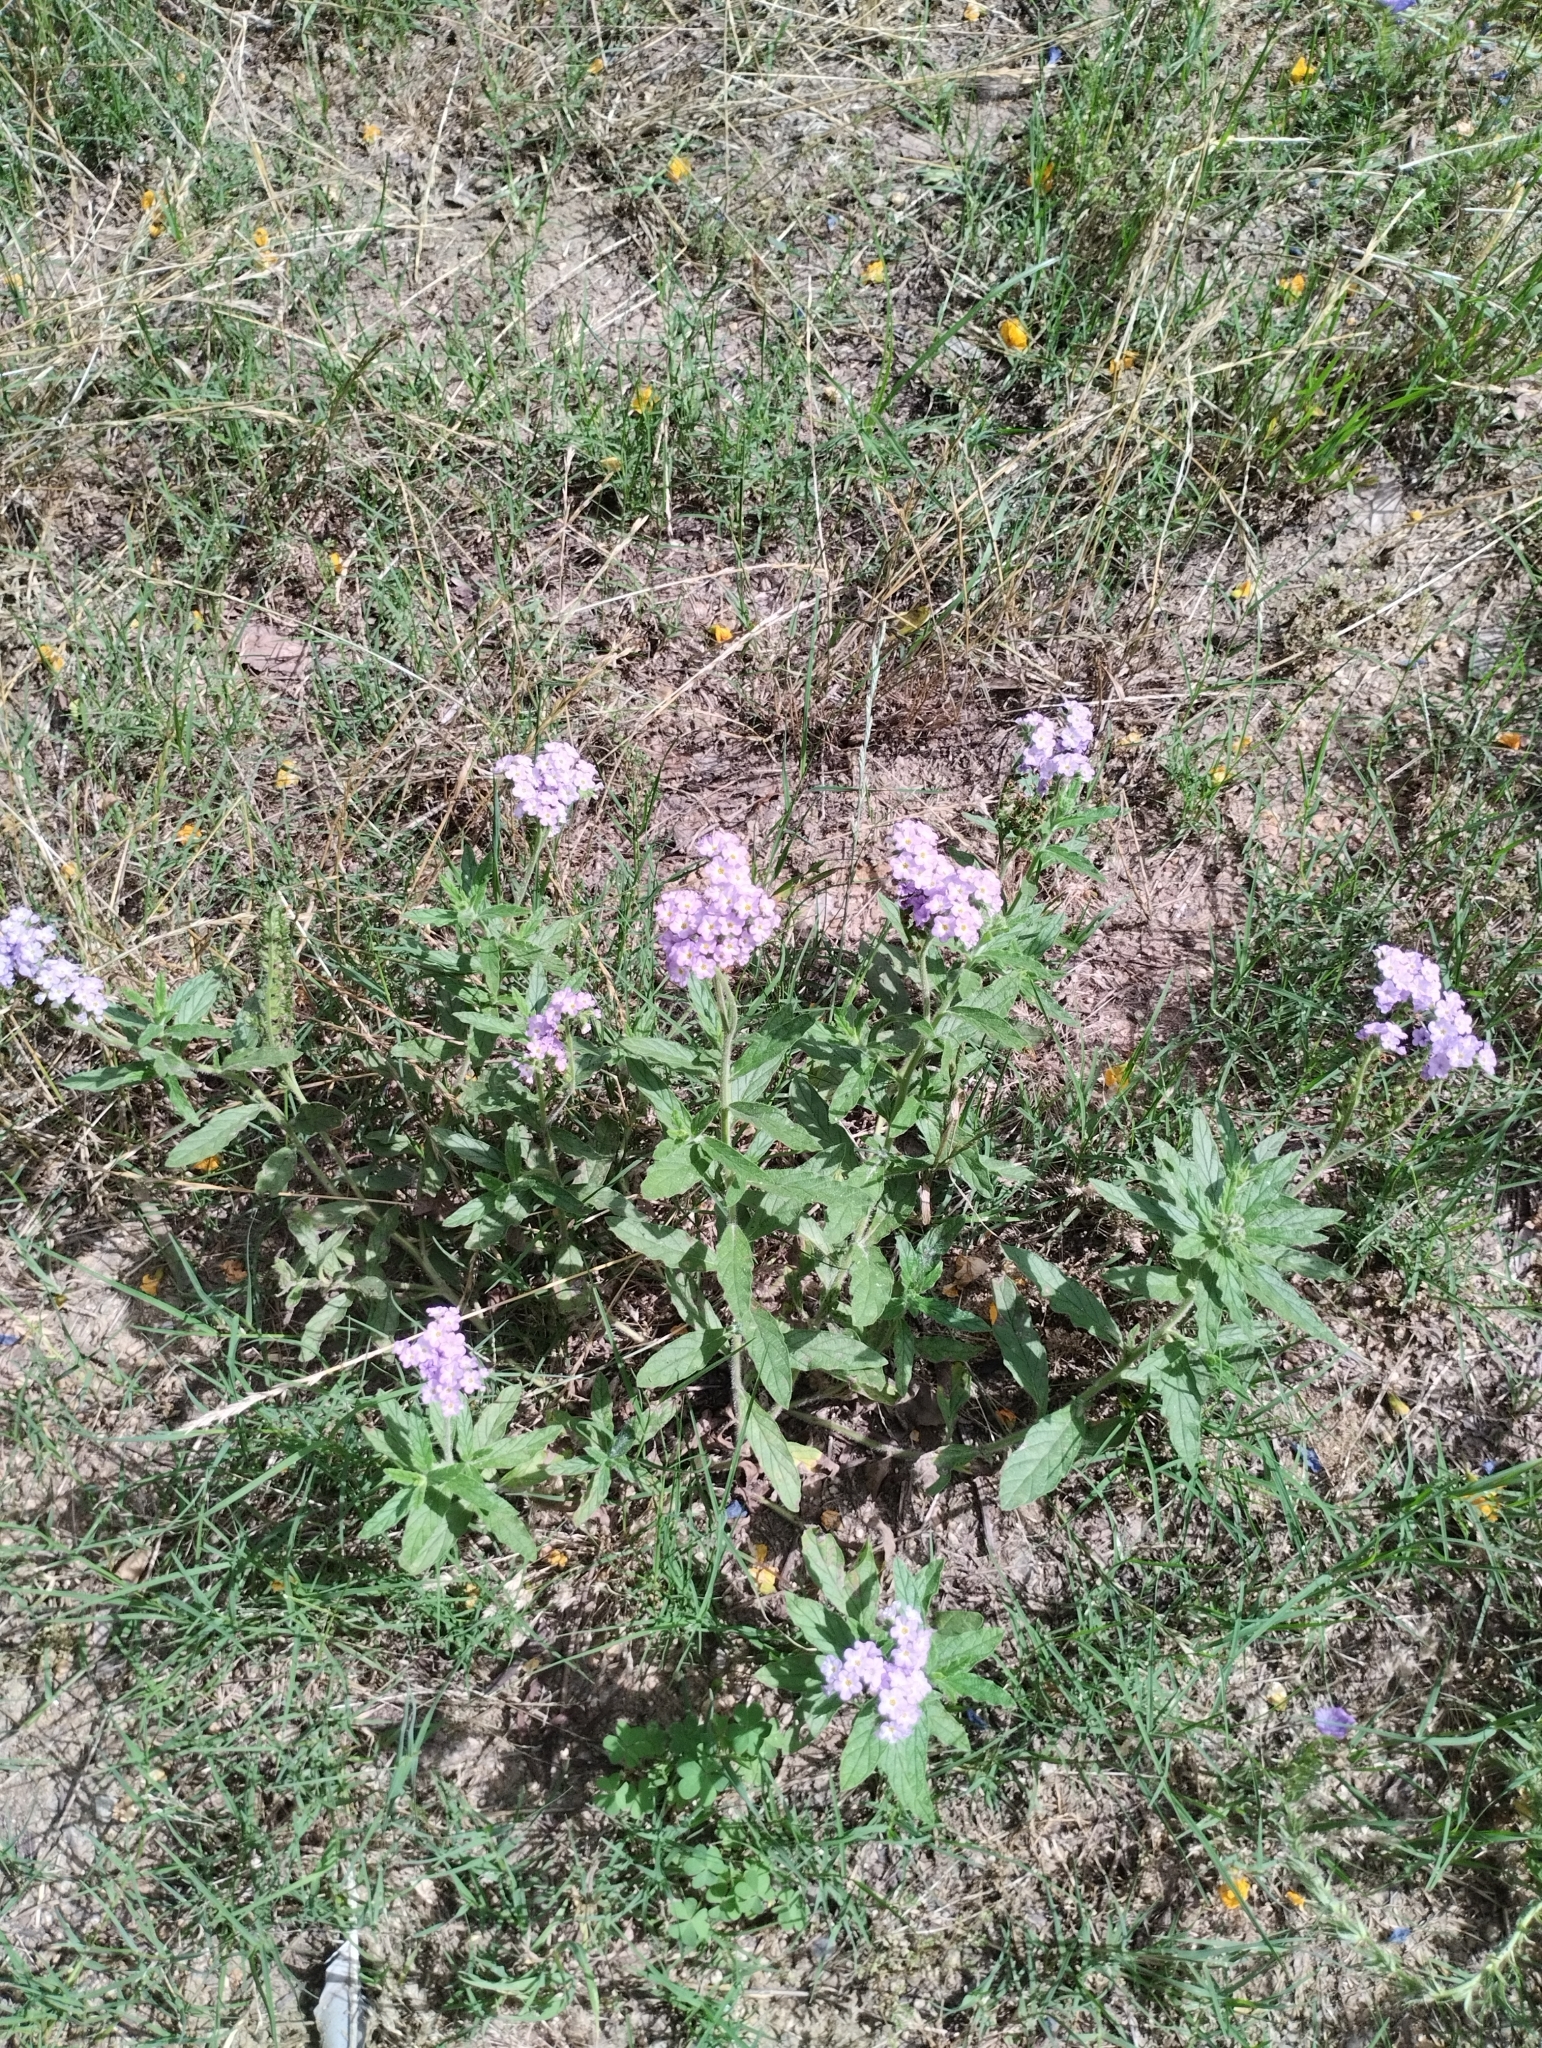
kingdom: Plantae
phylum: Tracheophyta
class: Magnoliopsida
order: Boraginales
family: Heliotropiaceae
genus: Heliotropium
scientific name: Heliotropium amplexicaule
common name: Clasping heliotrope
